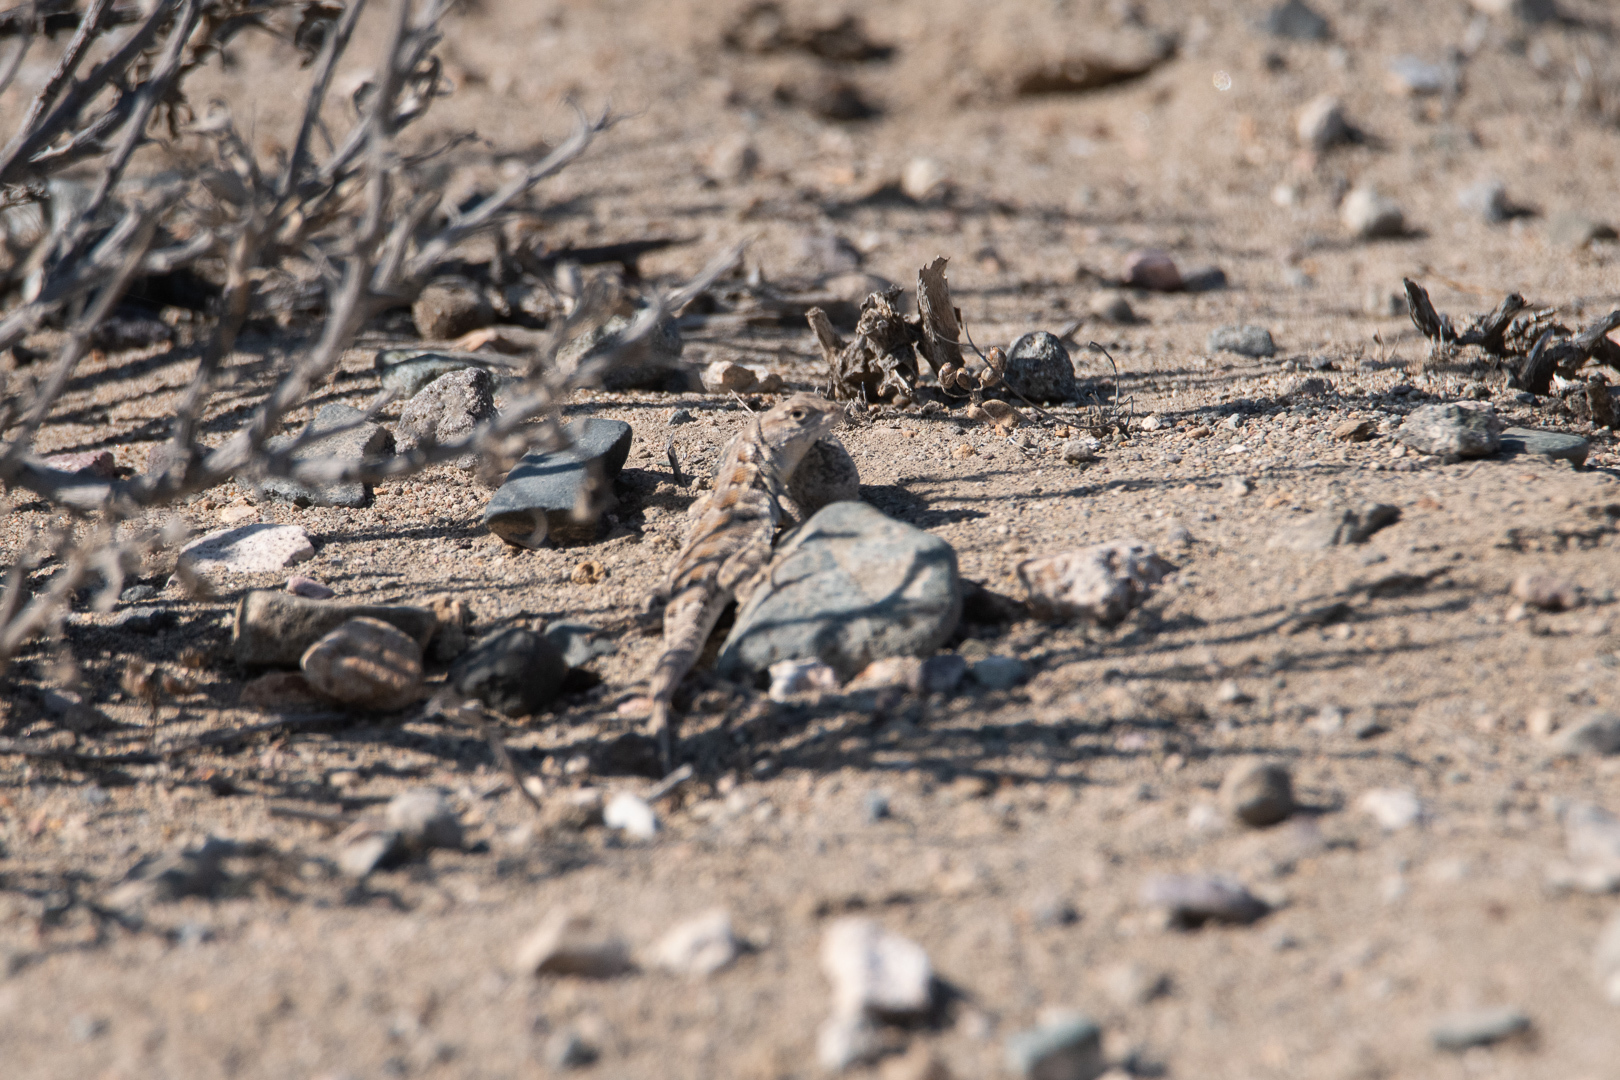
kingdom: Animalia
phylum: Chordata
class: Squamata
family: Liolaemidae
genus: Liolaemus
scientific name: Liolaemus atacamensis
